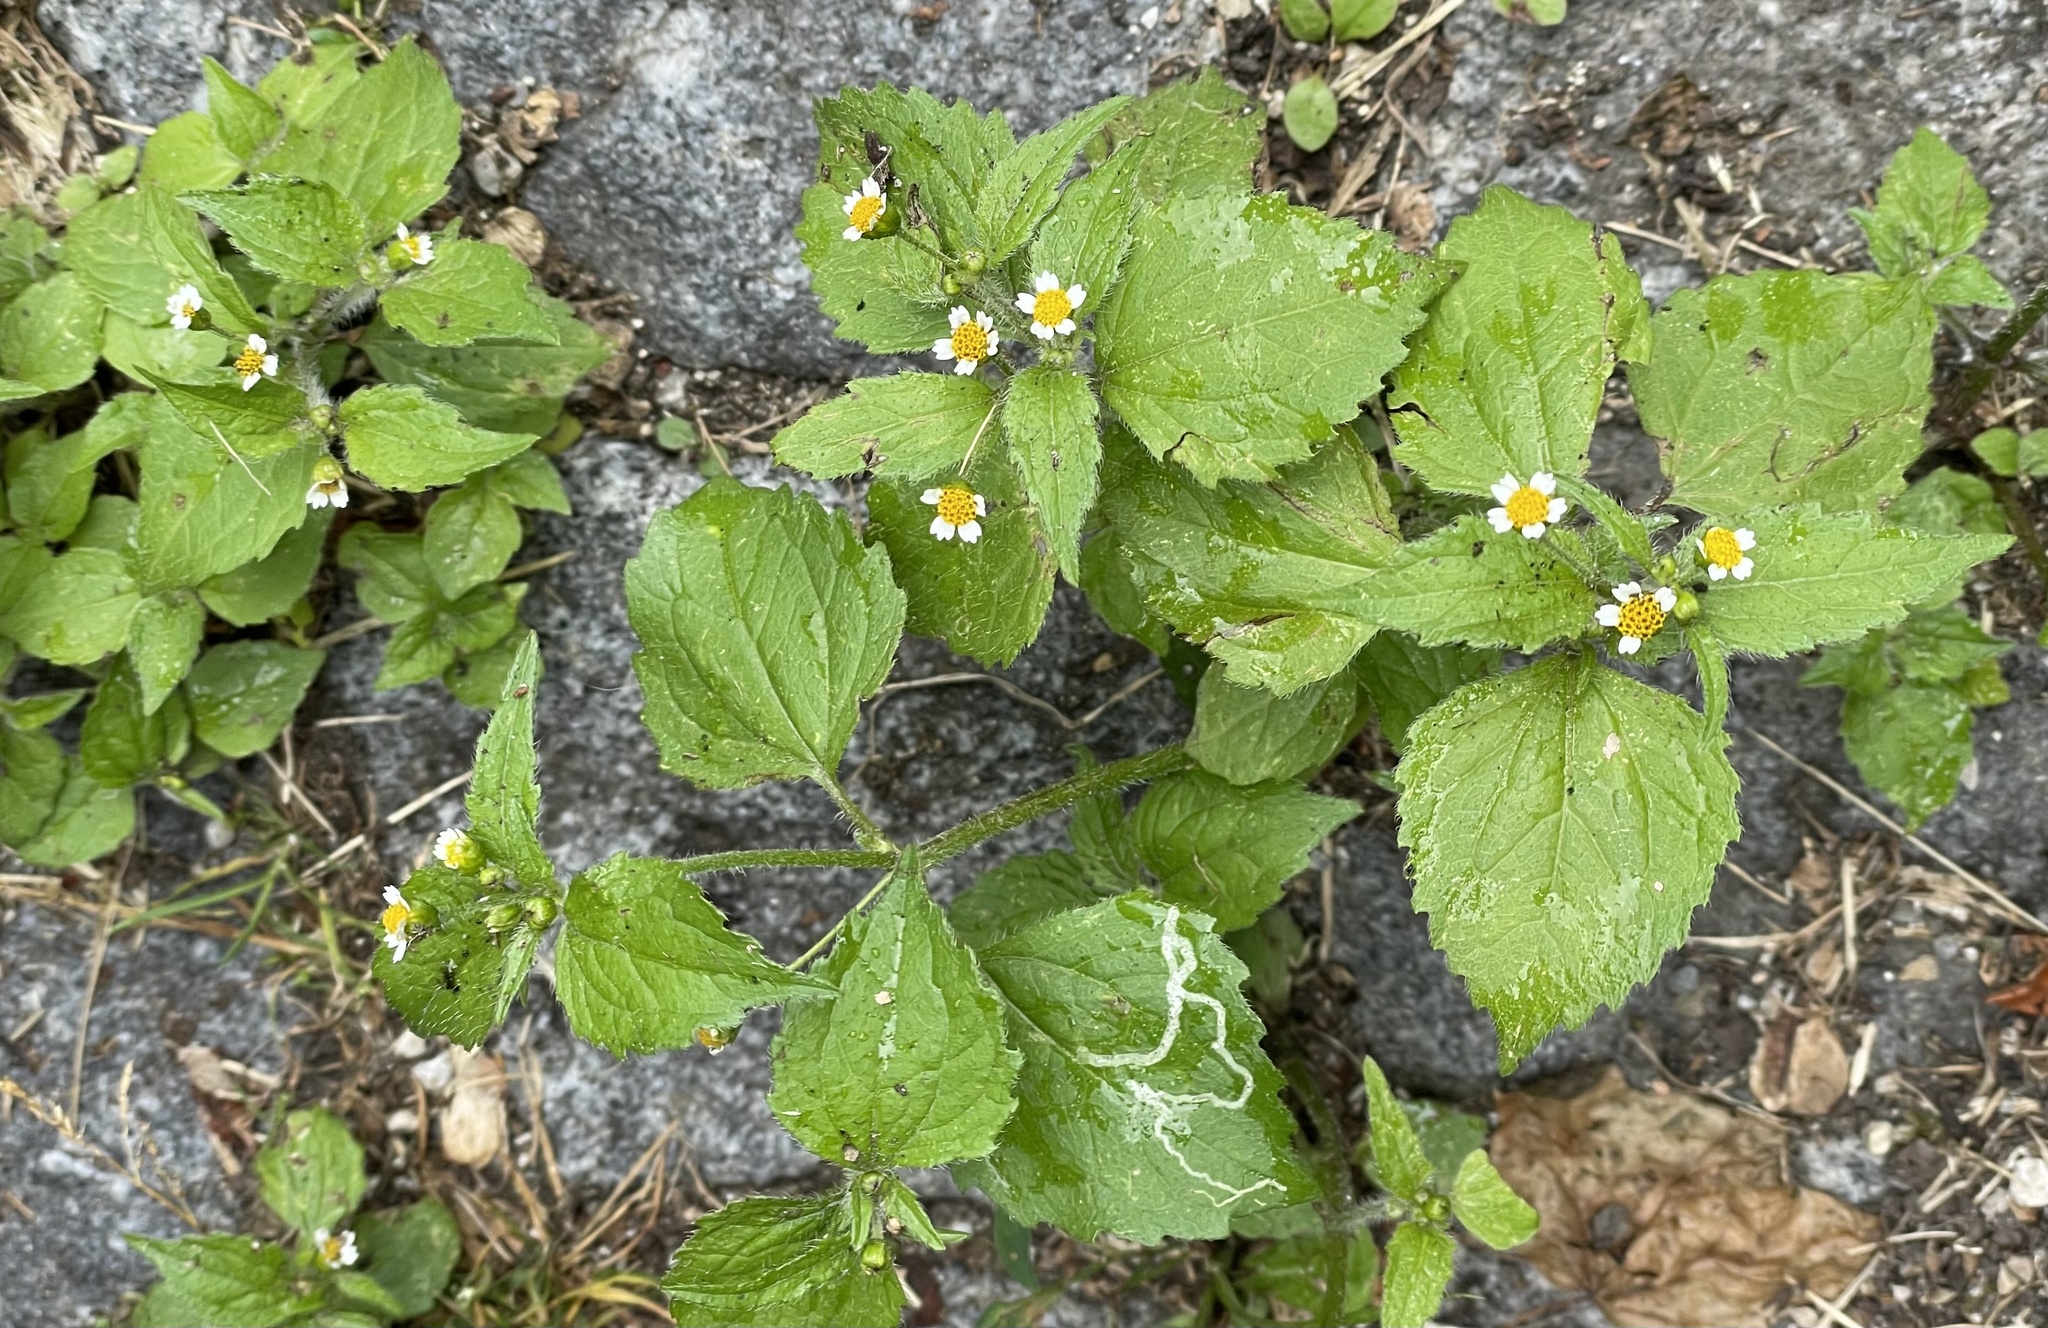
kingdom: Plantae
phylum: Tracheophyta
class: Magnoliopsida
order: Asterales
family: Asteraceae
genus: Galinsoga
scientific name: Galinsoga quadriradiata
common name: Shaggy soldier
